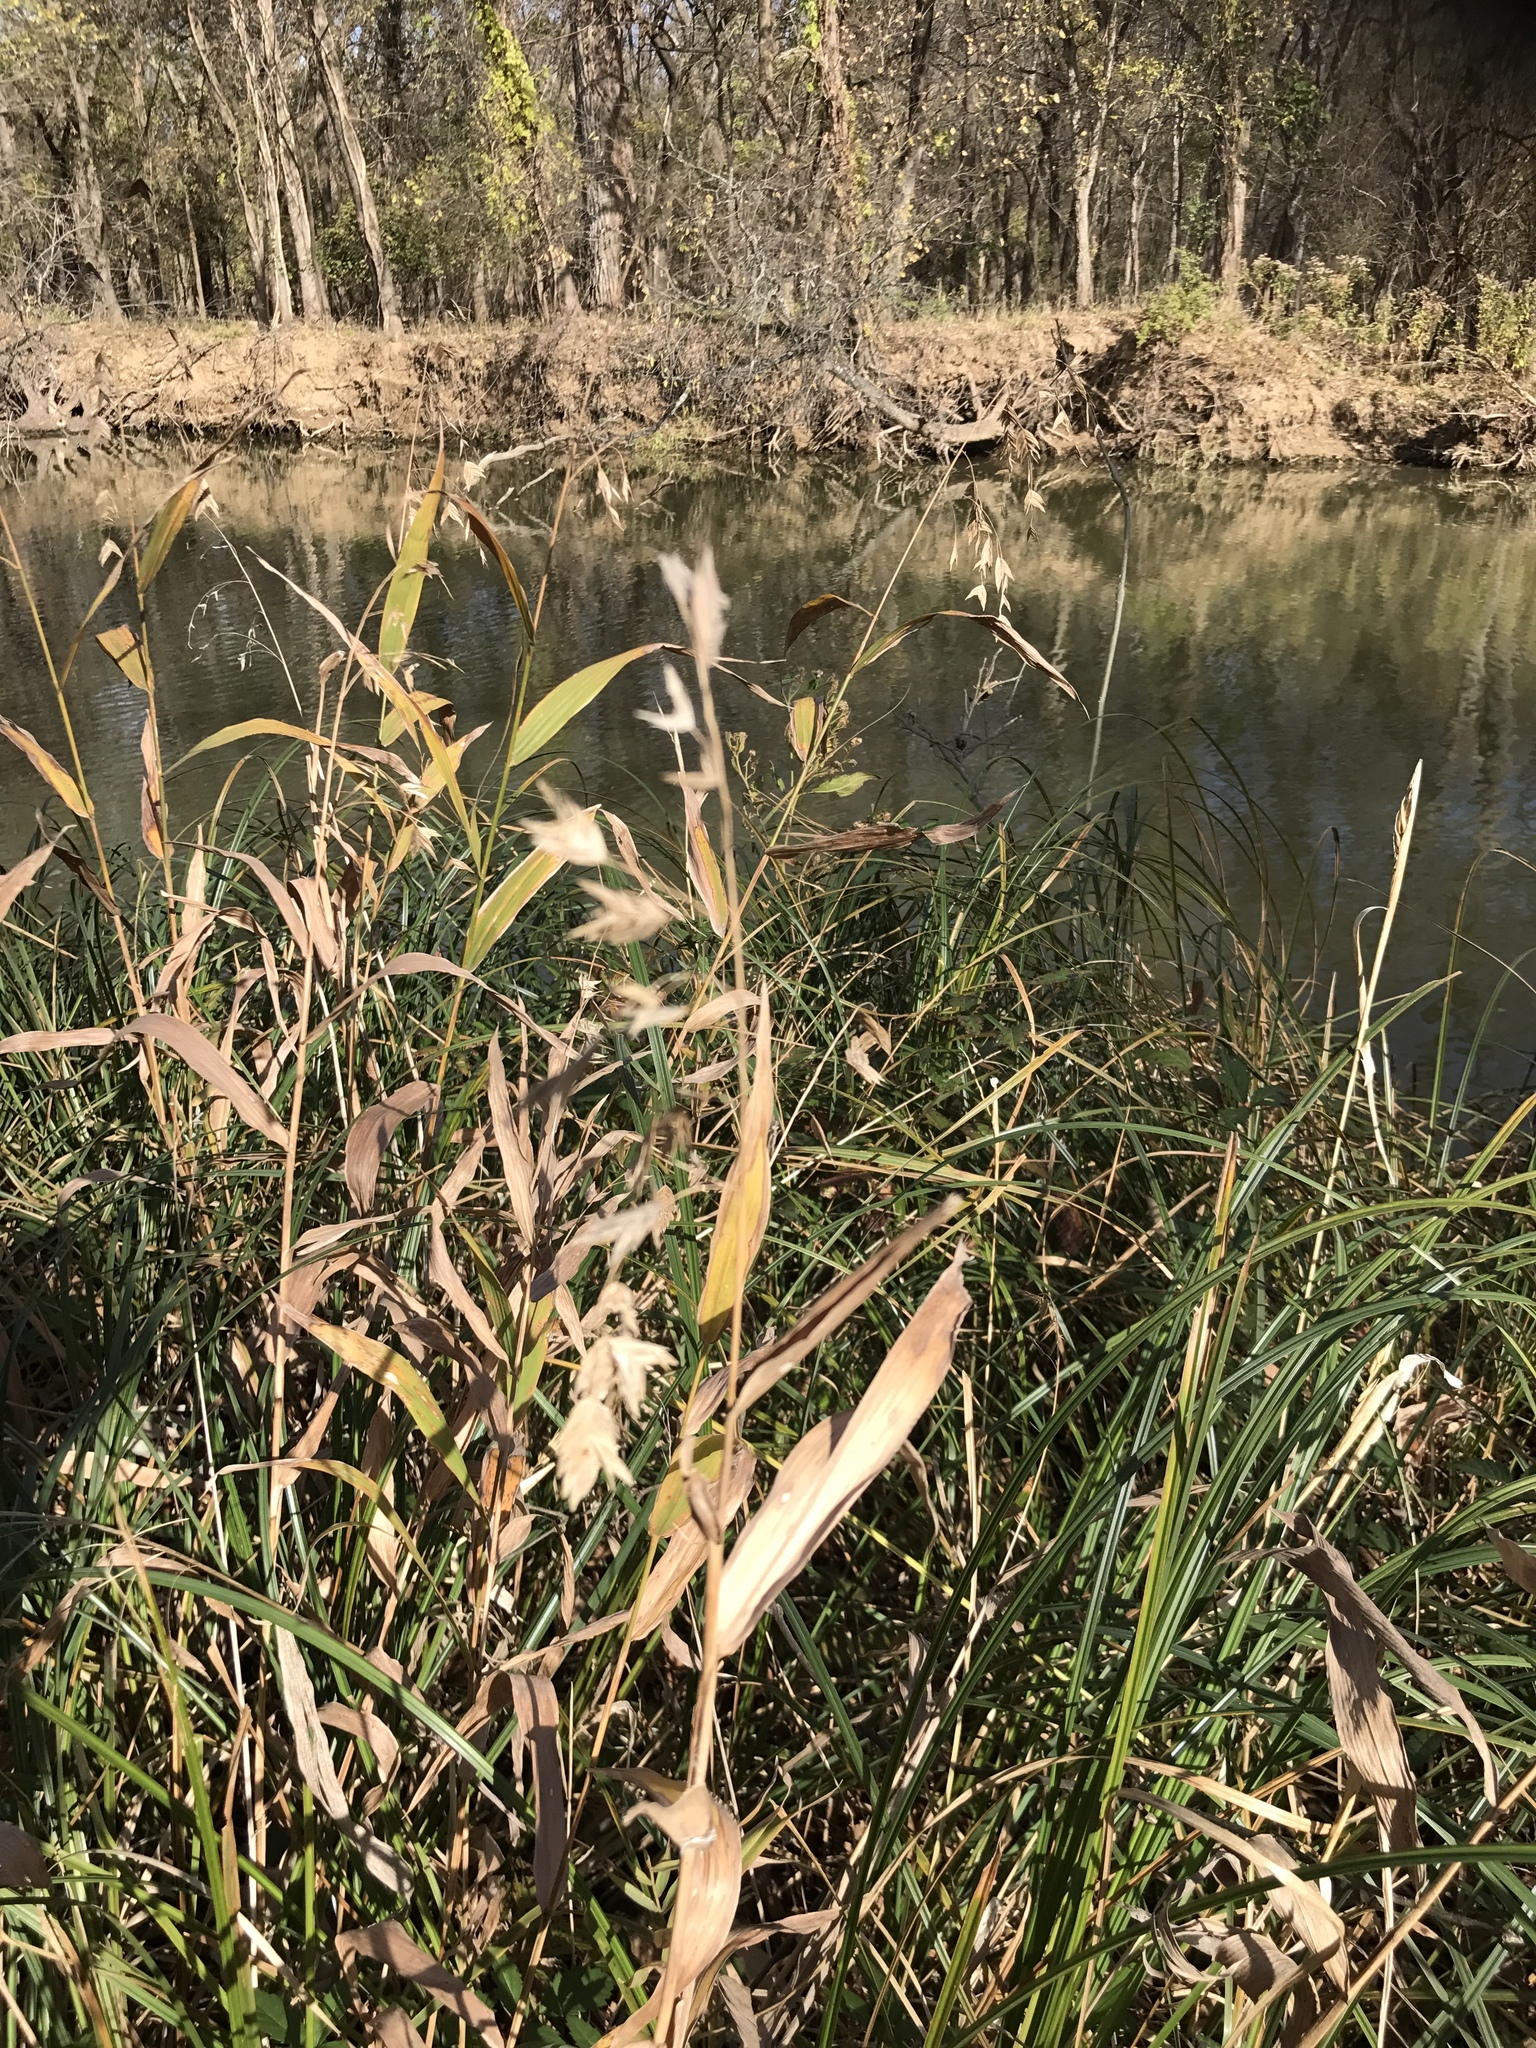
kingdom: Plantae
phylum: Tracheophyta
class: Liliopsida
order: Poales
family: Poaceae
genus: Chasmanthium
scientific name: Chasmanthium latifolium
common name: Broad-leaved chasmanthium
